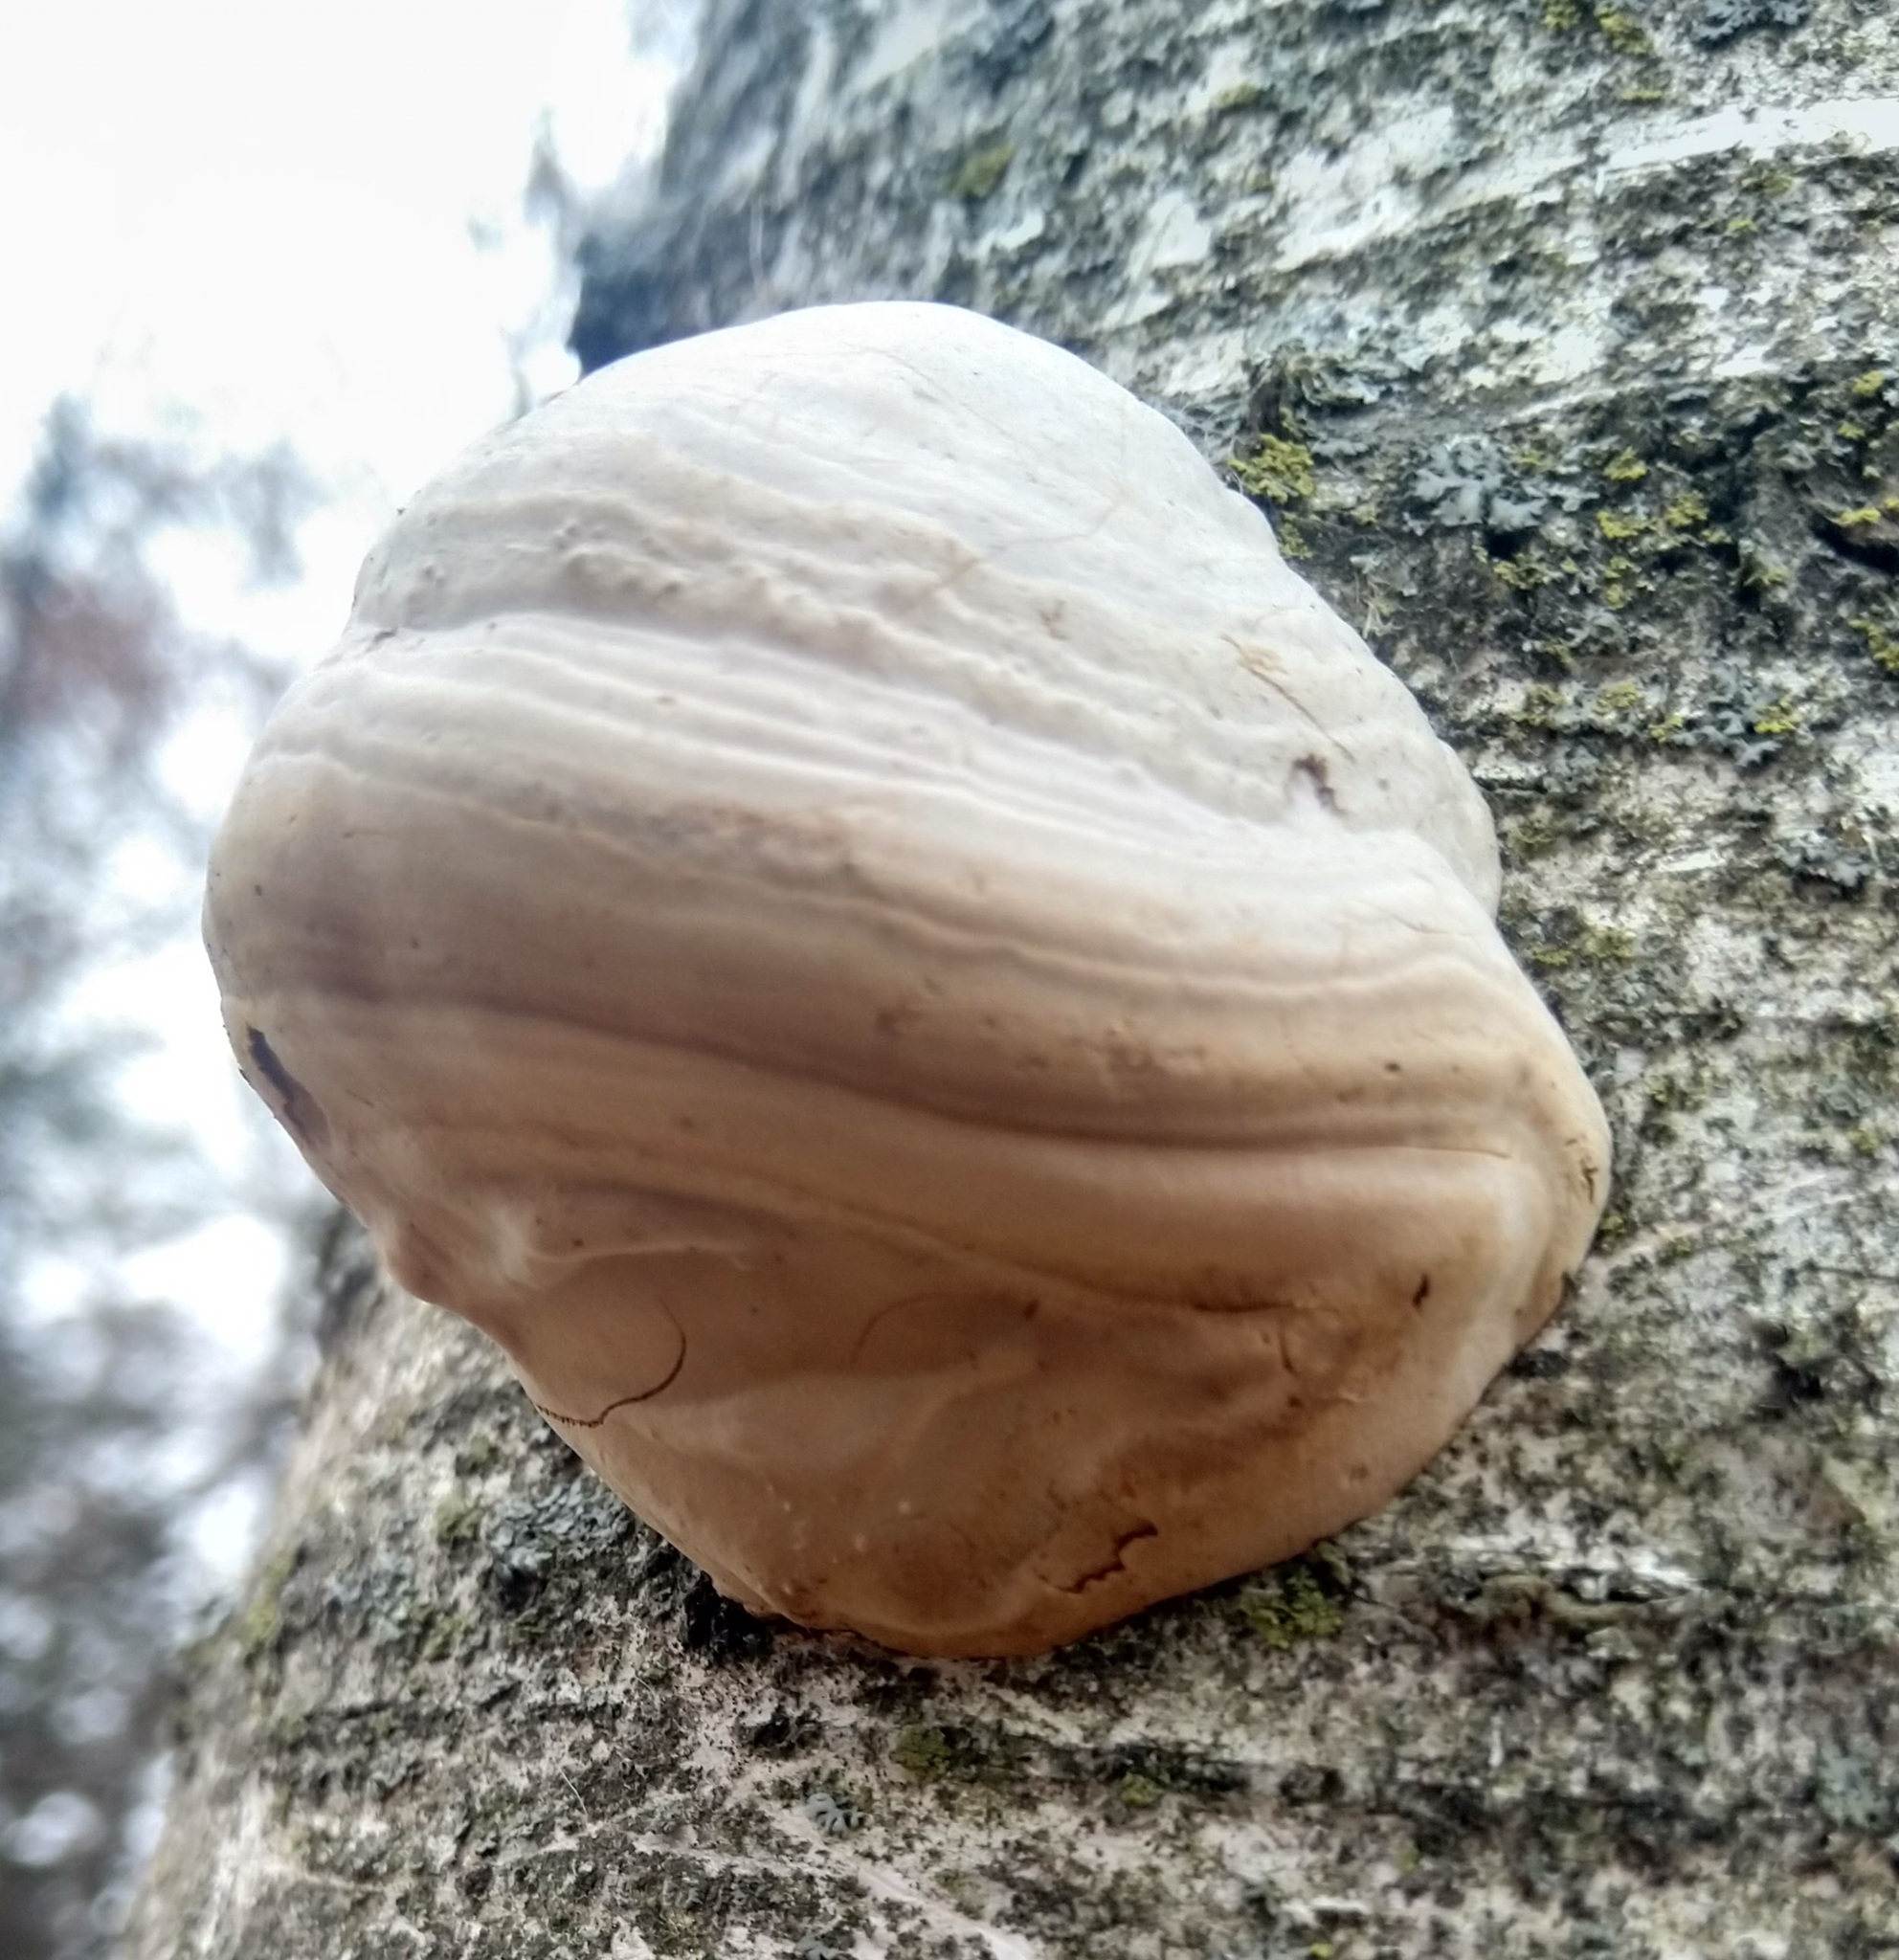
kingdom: Fungi
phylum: Basidiomycota
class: Agaricomycetes
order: Polyporales
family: Polyporaceae
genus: Fomes
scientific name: Fomes fomentarius
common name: Hoof fungus
